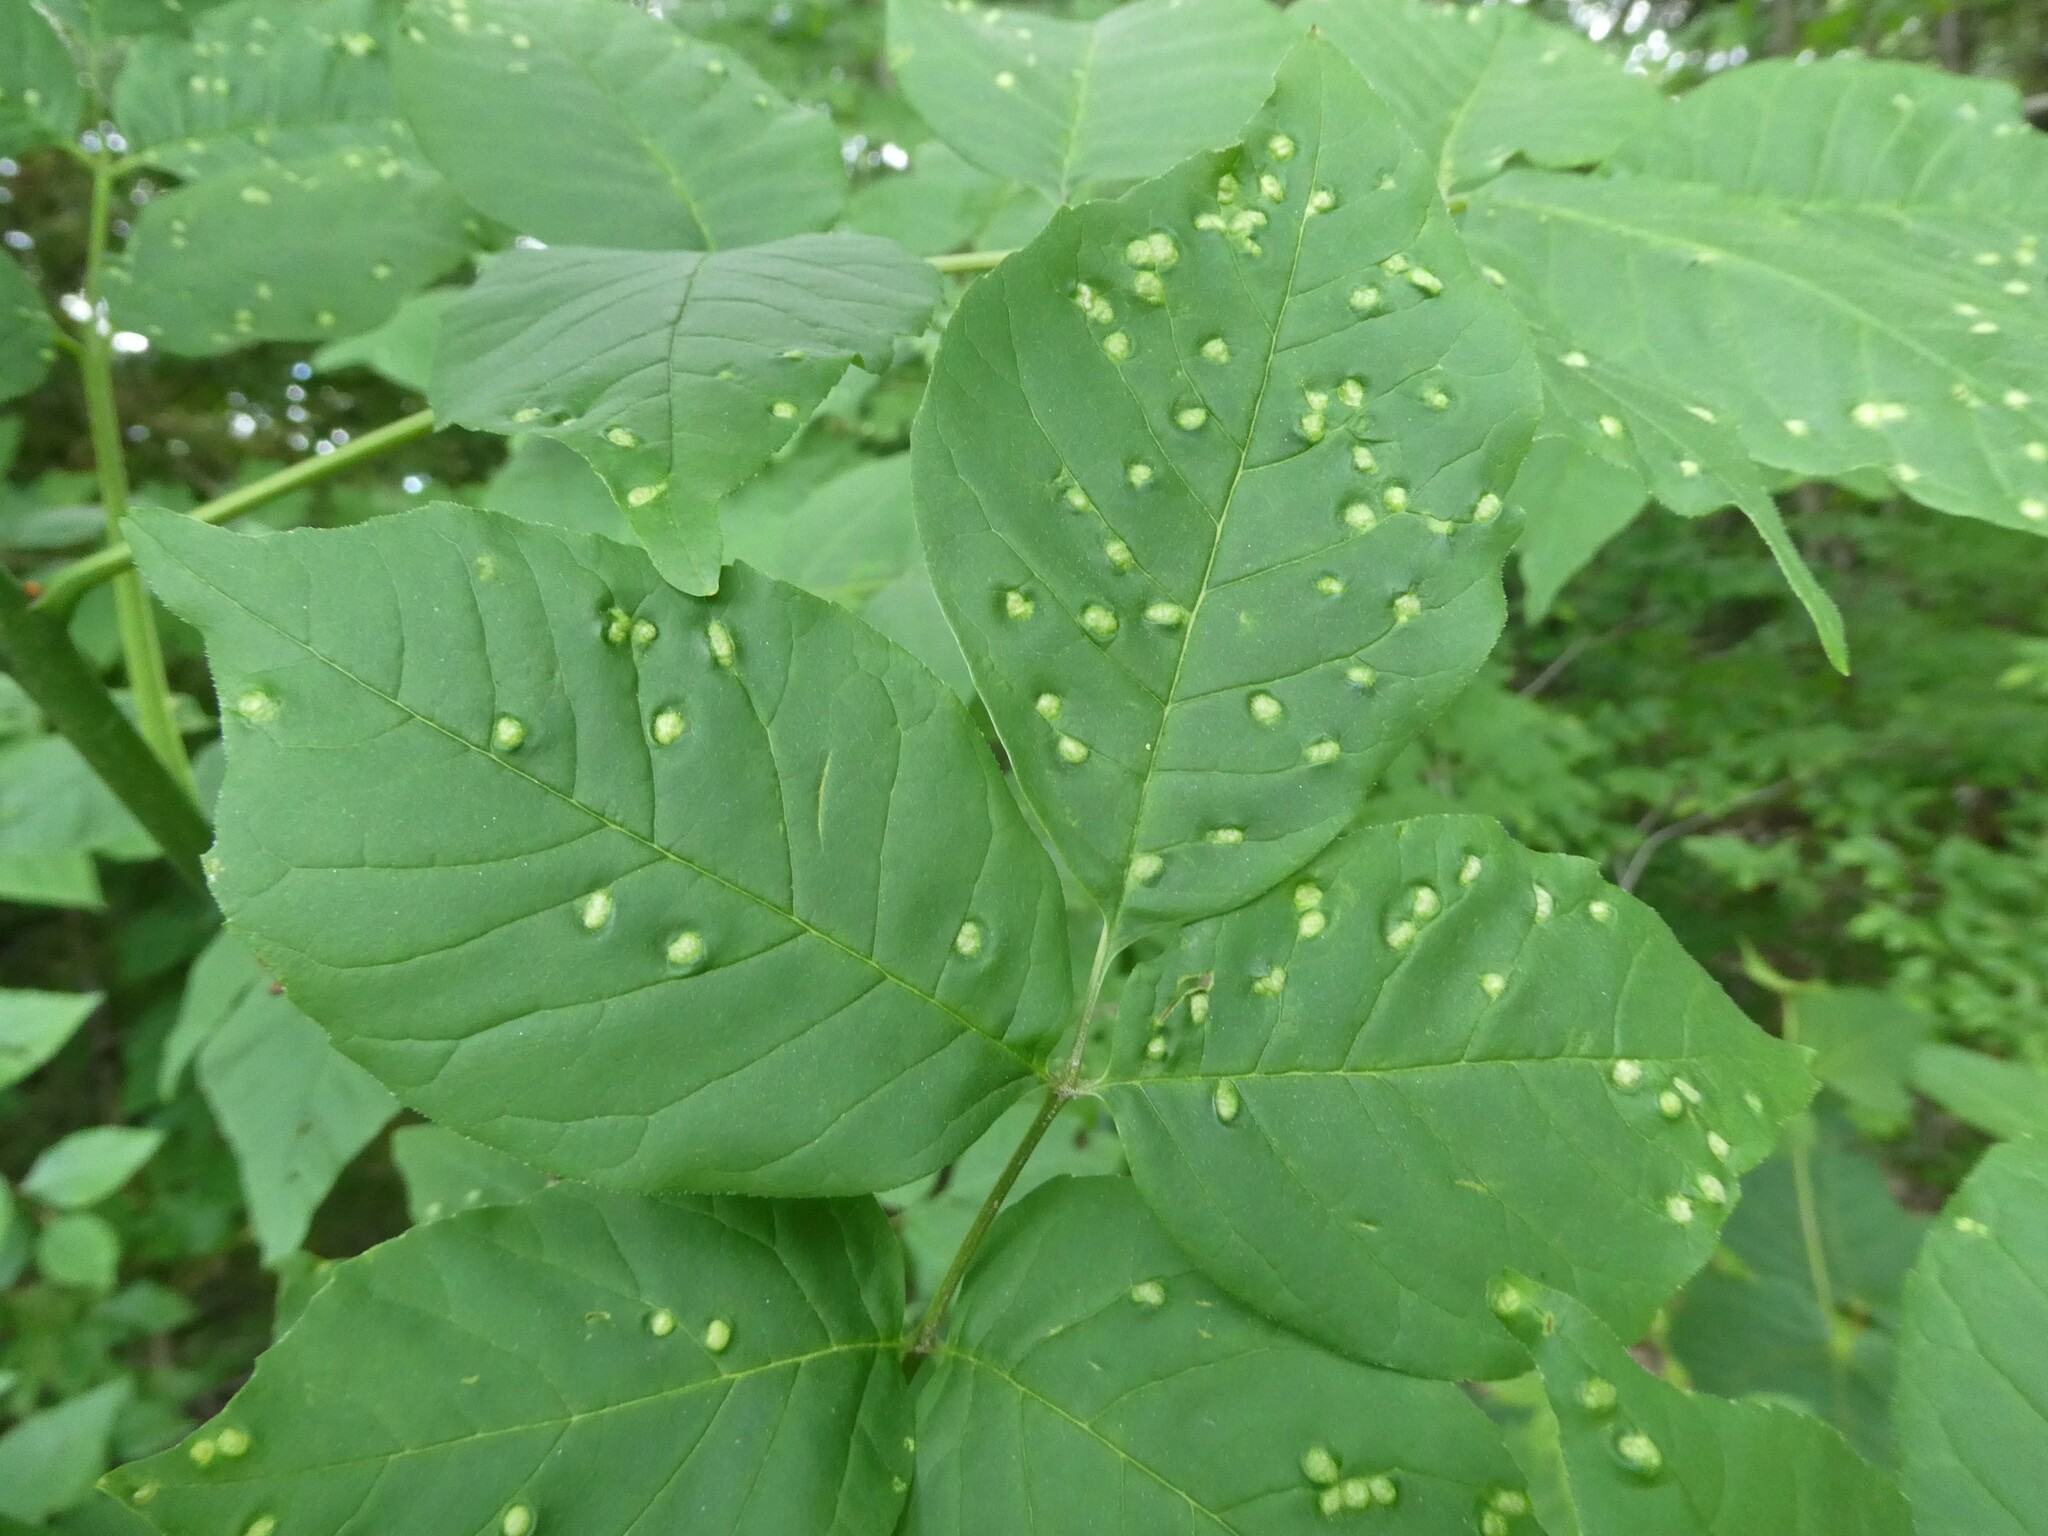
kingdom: Animalia
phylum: Arthropoda
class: Arachnida
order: Trombidiformes
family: Eriophyidae
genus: Aceria
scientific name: Aceria fraxinicola
